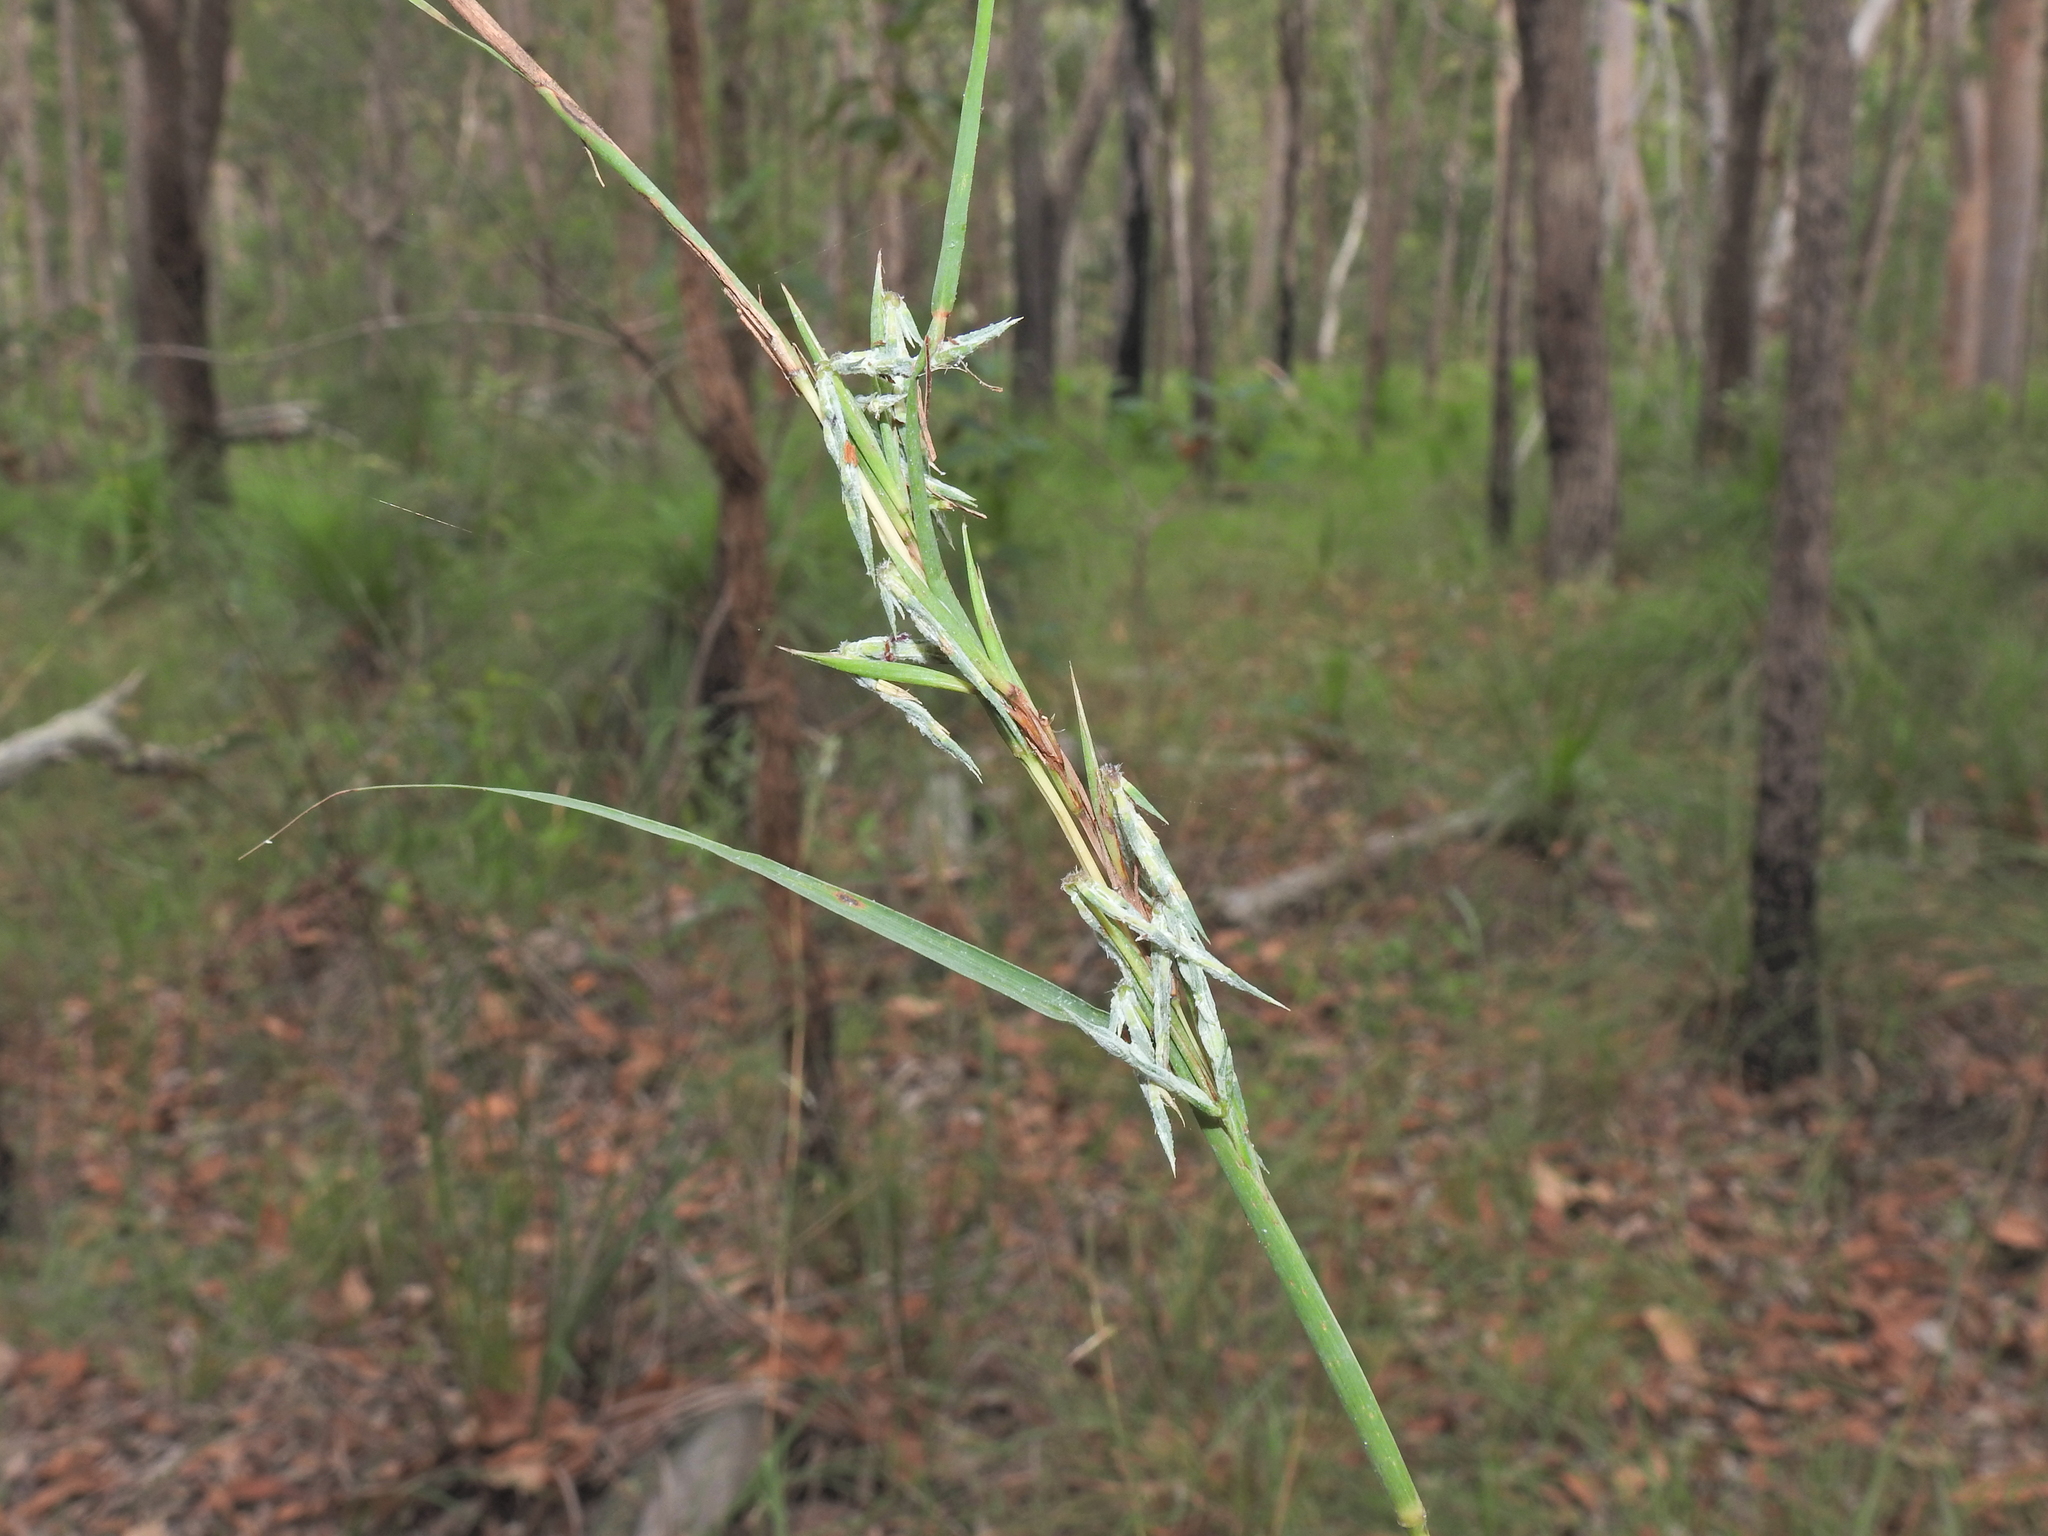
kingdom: Plantae
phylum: Tracheophyta
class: Liliopsida
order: Poales
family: Poaceae
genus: Cymbopogon
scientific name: Cymbopogon refractus
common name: Barbwire grass
